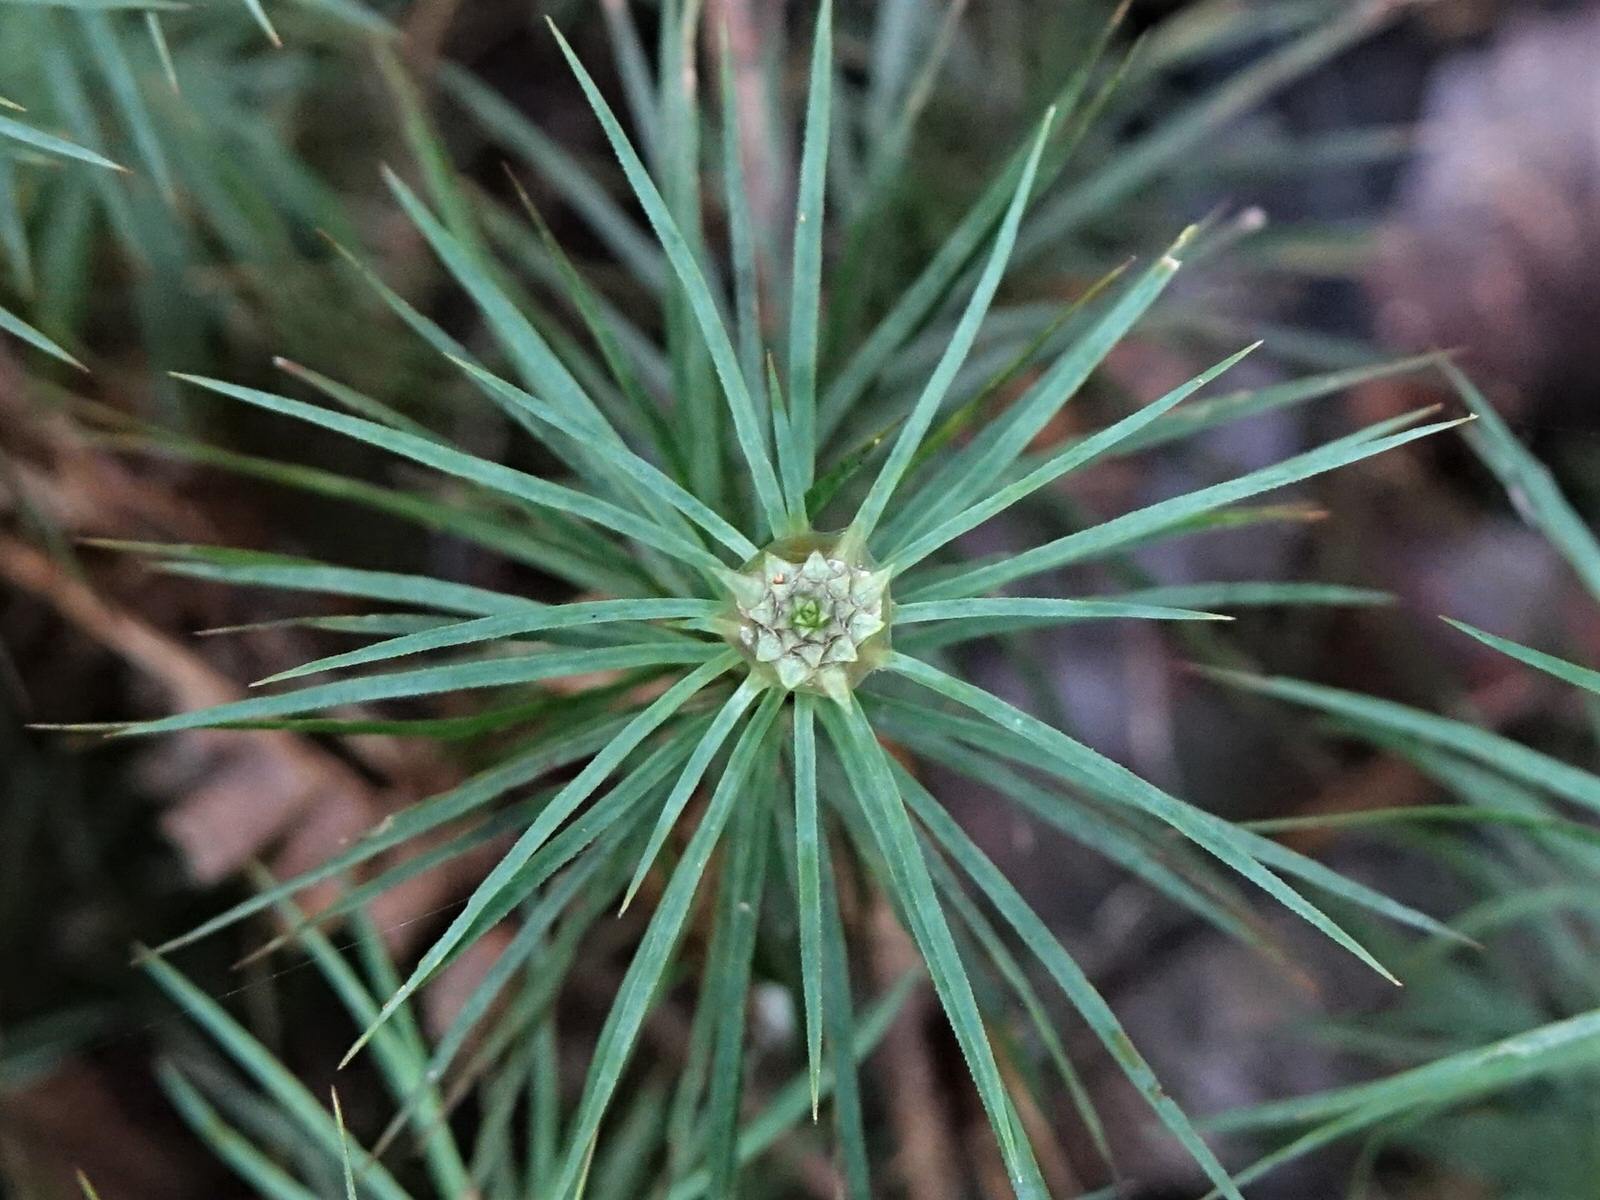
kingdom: Plantae
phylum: Bryophyta
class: Polytrichopsida
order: Polytrichales
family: Polytrichaceae
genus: Dawsonia
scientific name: Dawsonia superba
